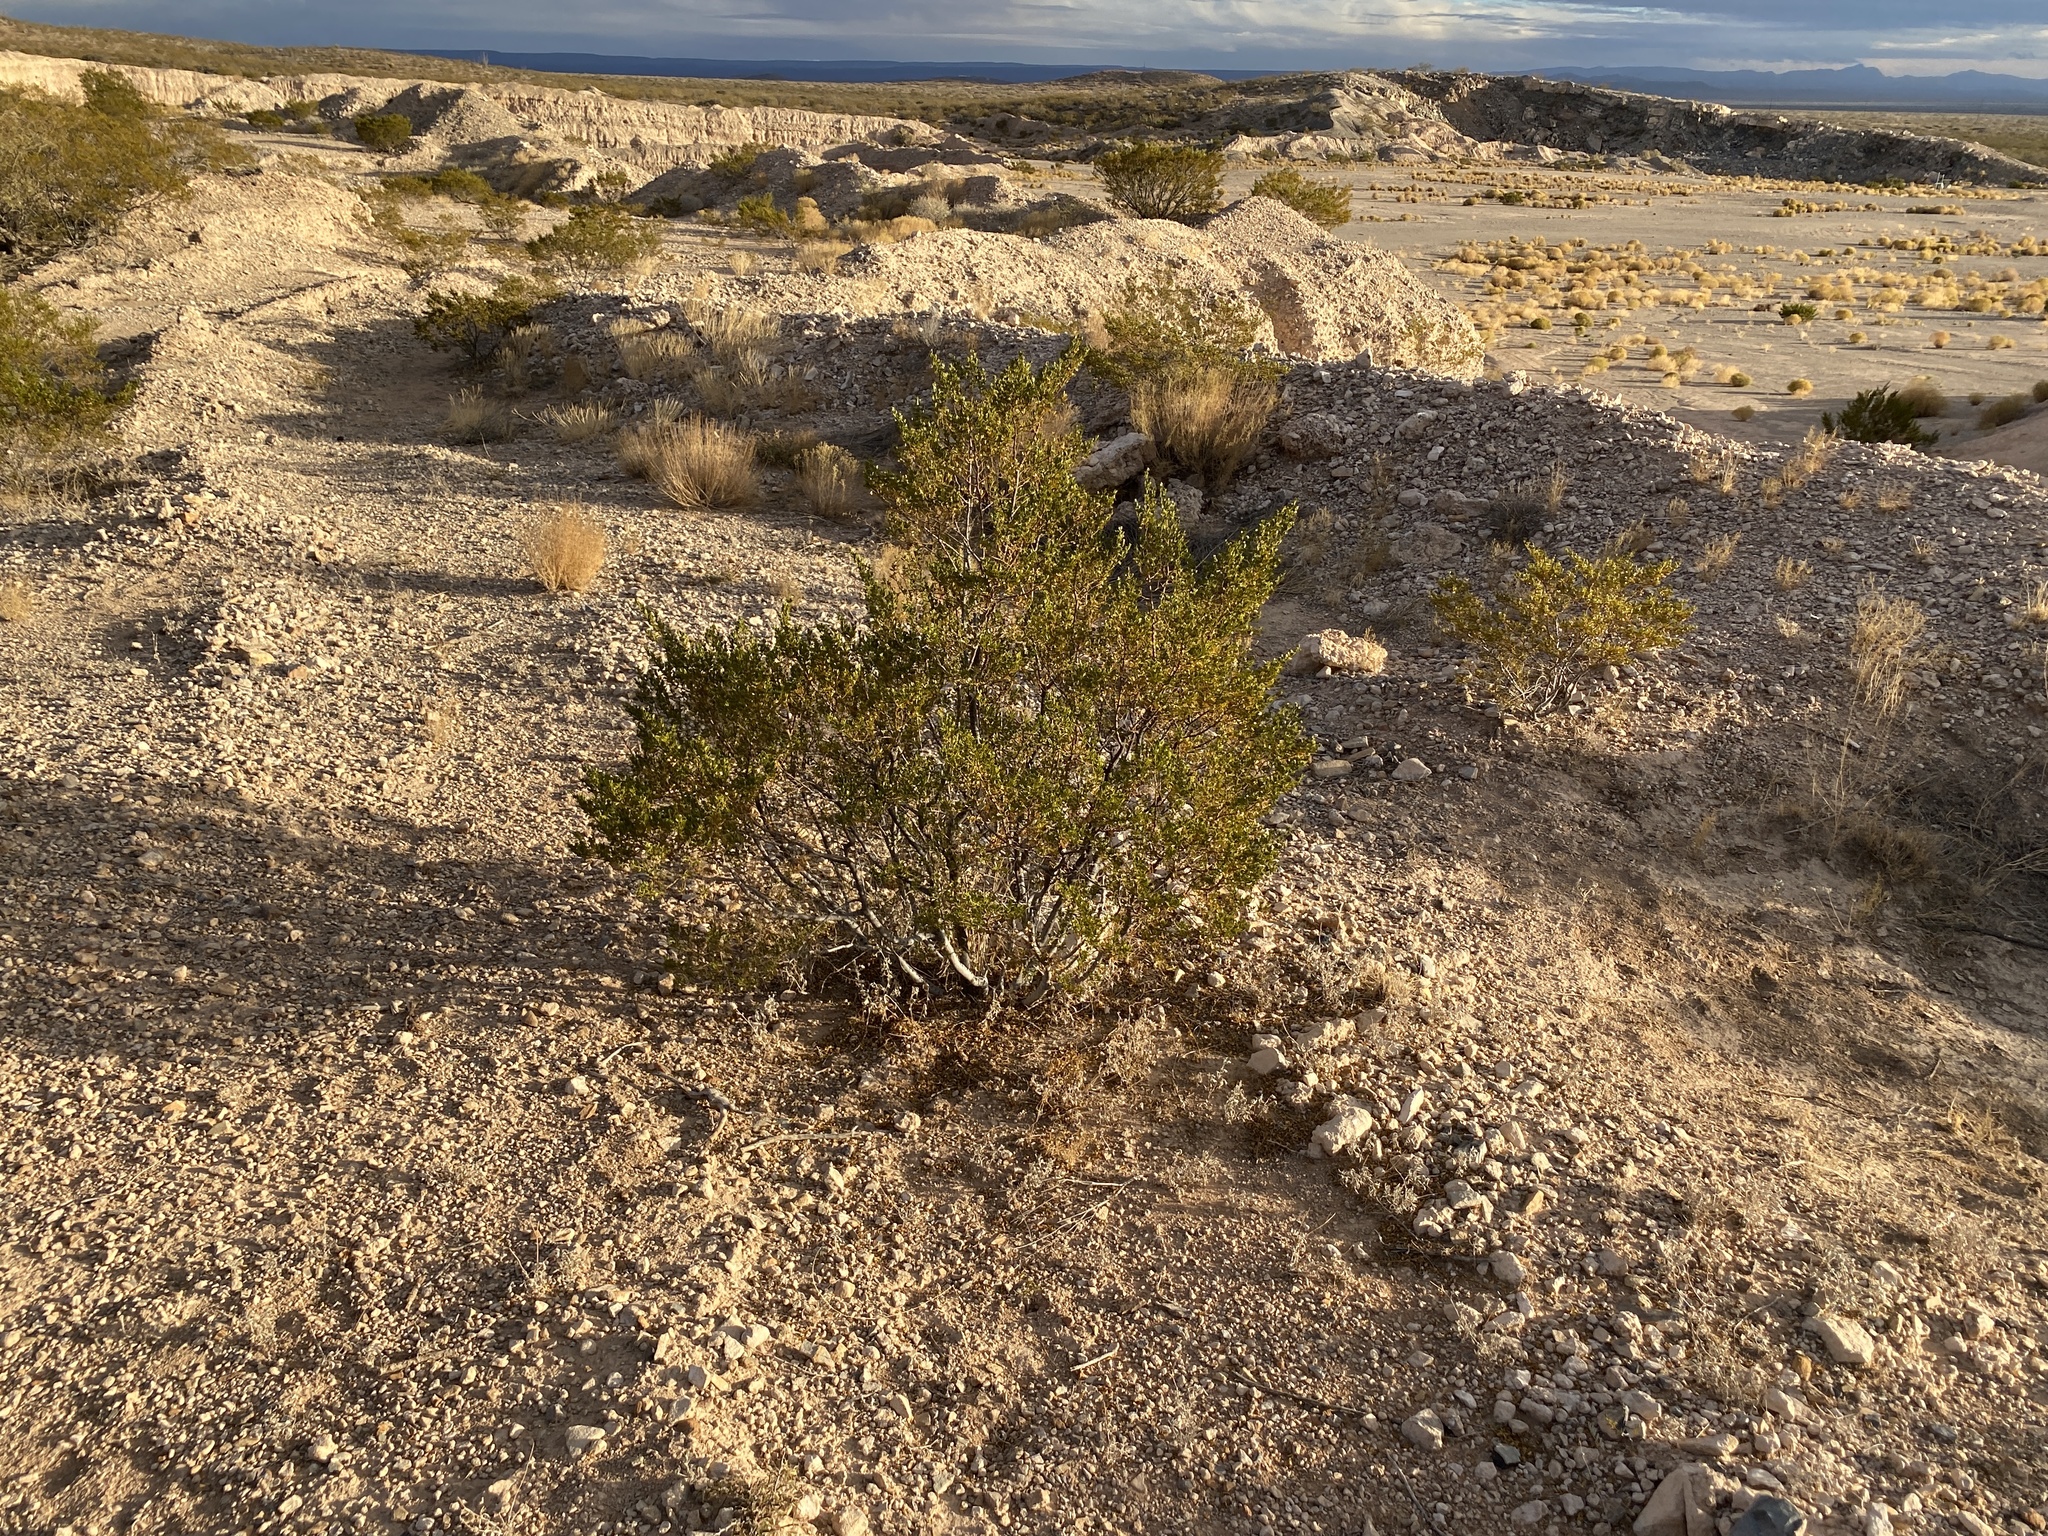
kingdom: Plantae
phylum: Tracheophyta
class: Magnoliopsida
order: Zygophyllales
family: Zygophyllaceae
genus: Larrea
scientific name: Larrea tridentata
